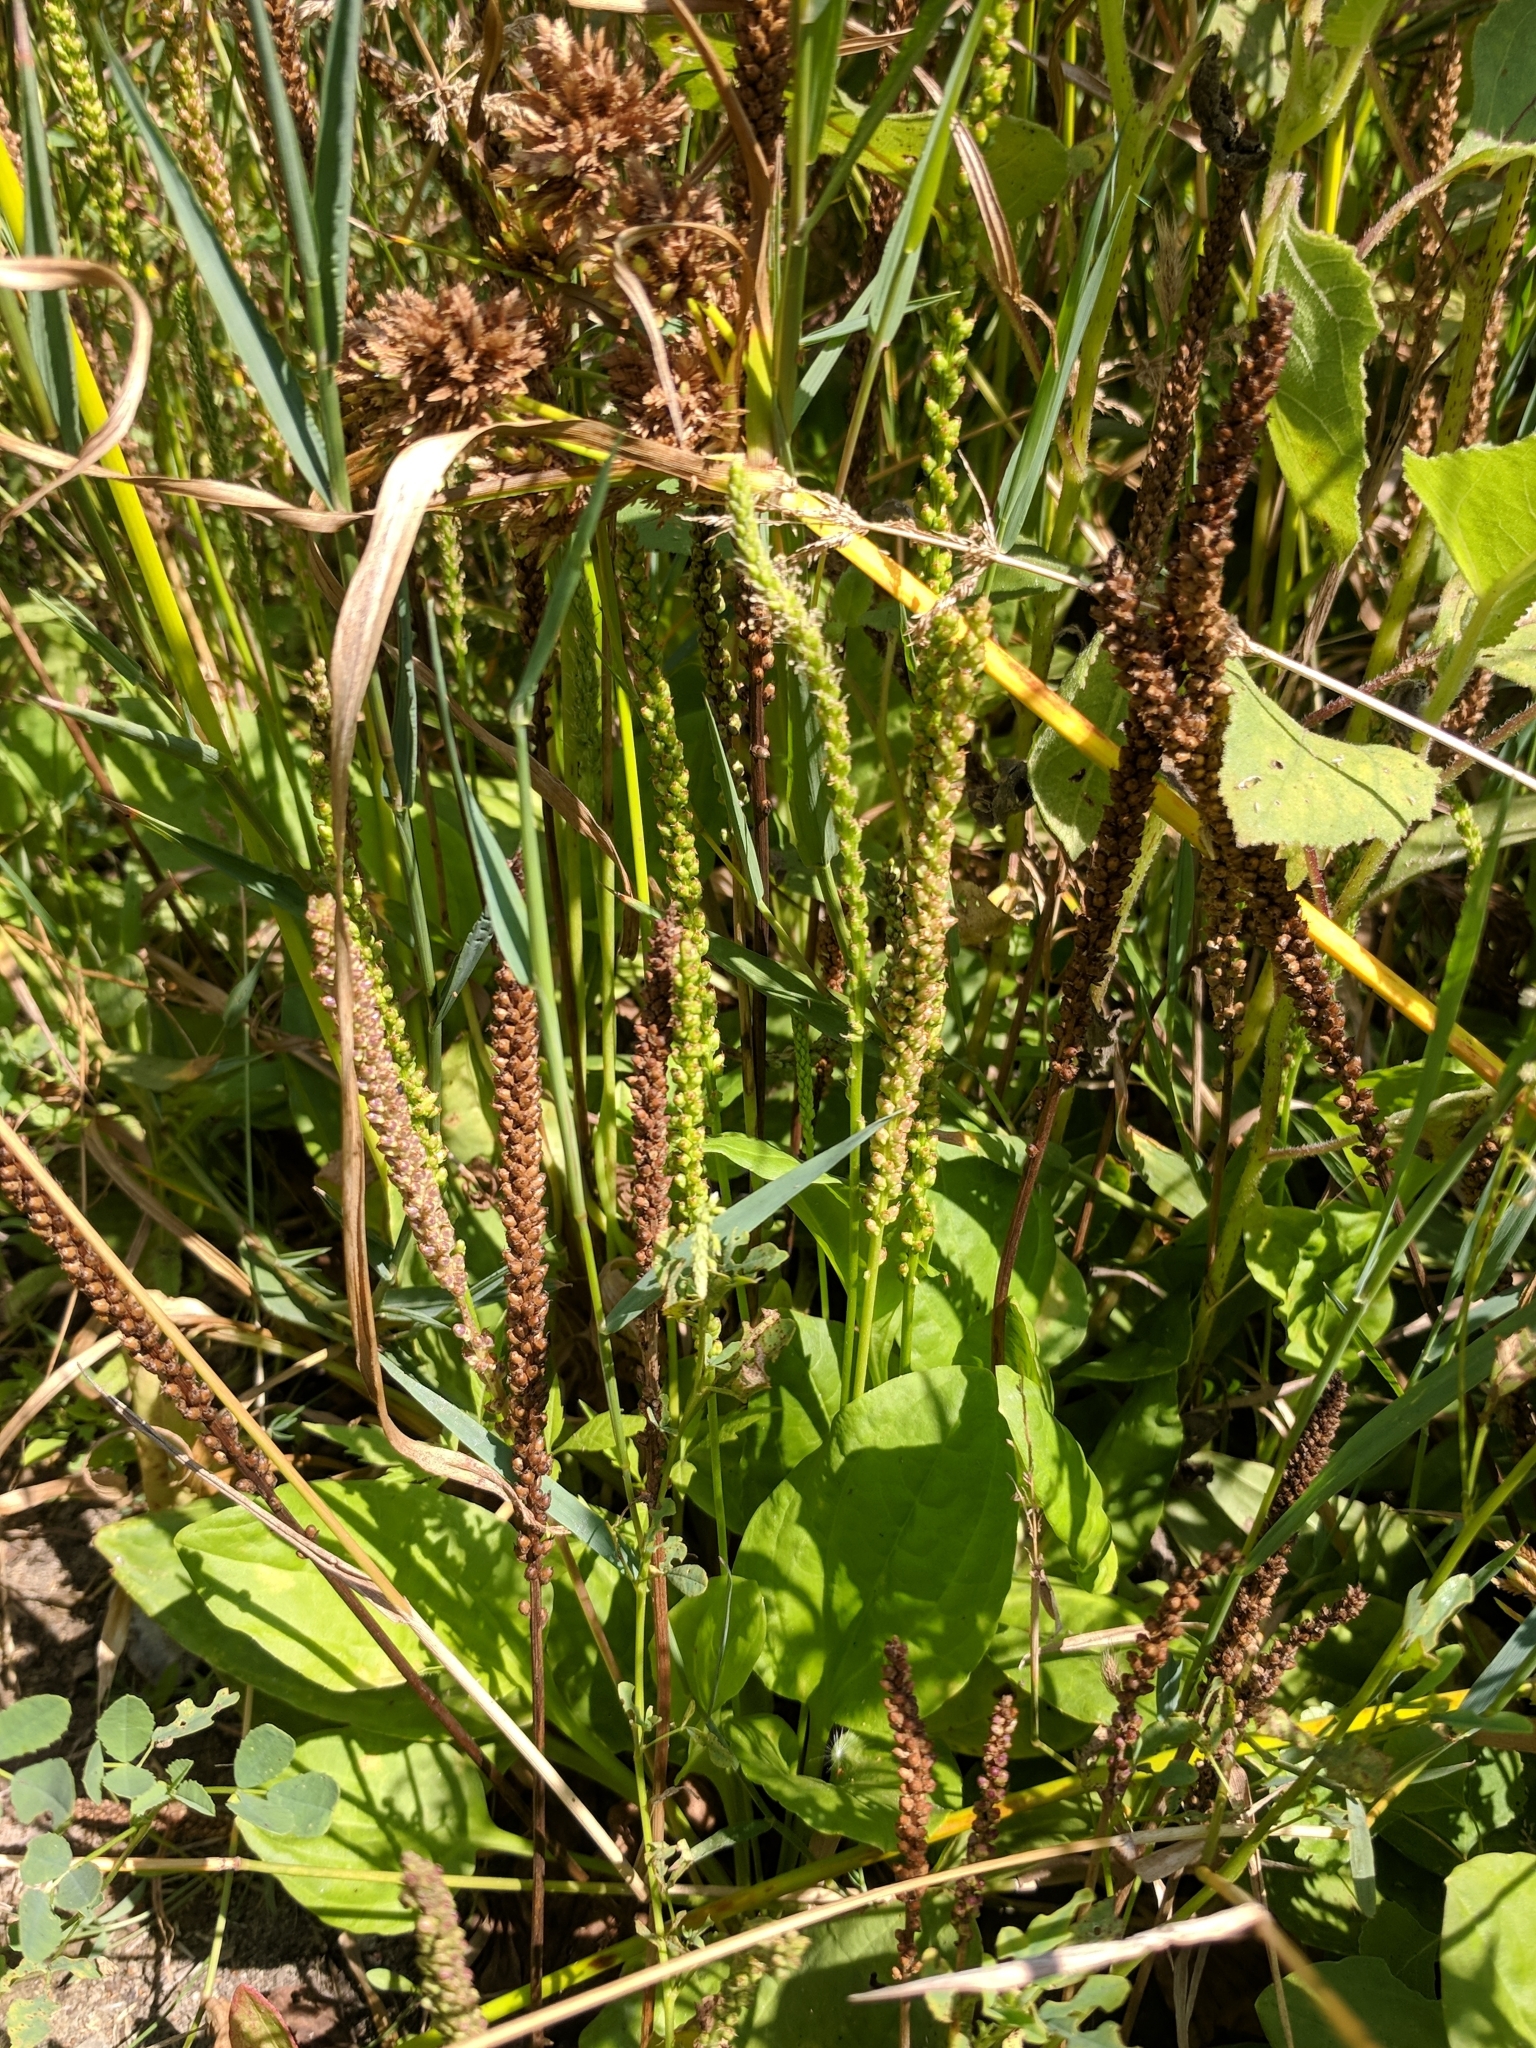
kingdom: Plantae
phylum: Tracheophyta
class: Magnoliopsida
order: Lamiales
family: Plantaginaceae
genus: Plantago
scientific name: Plantago major
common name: Common plantain
